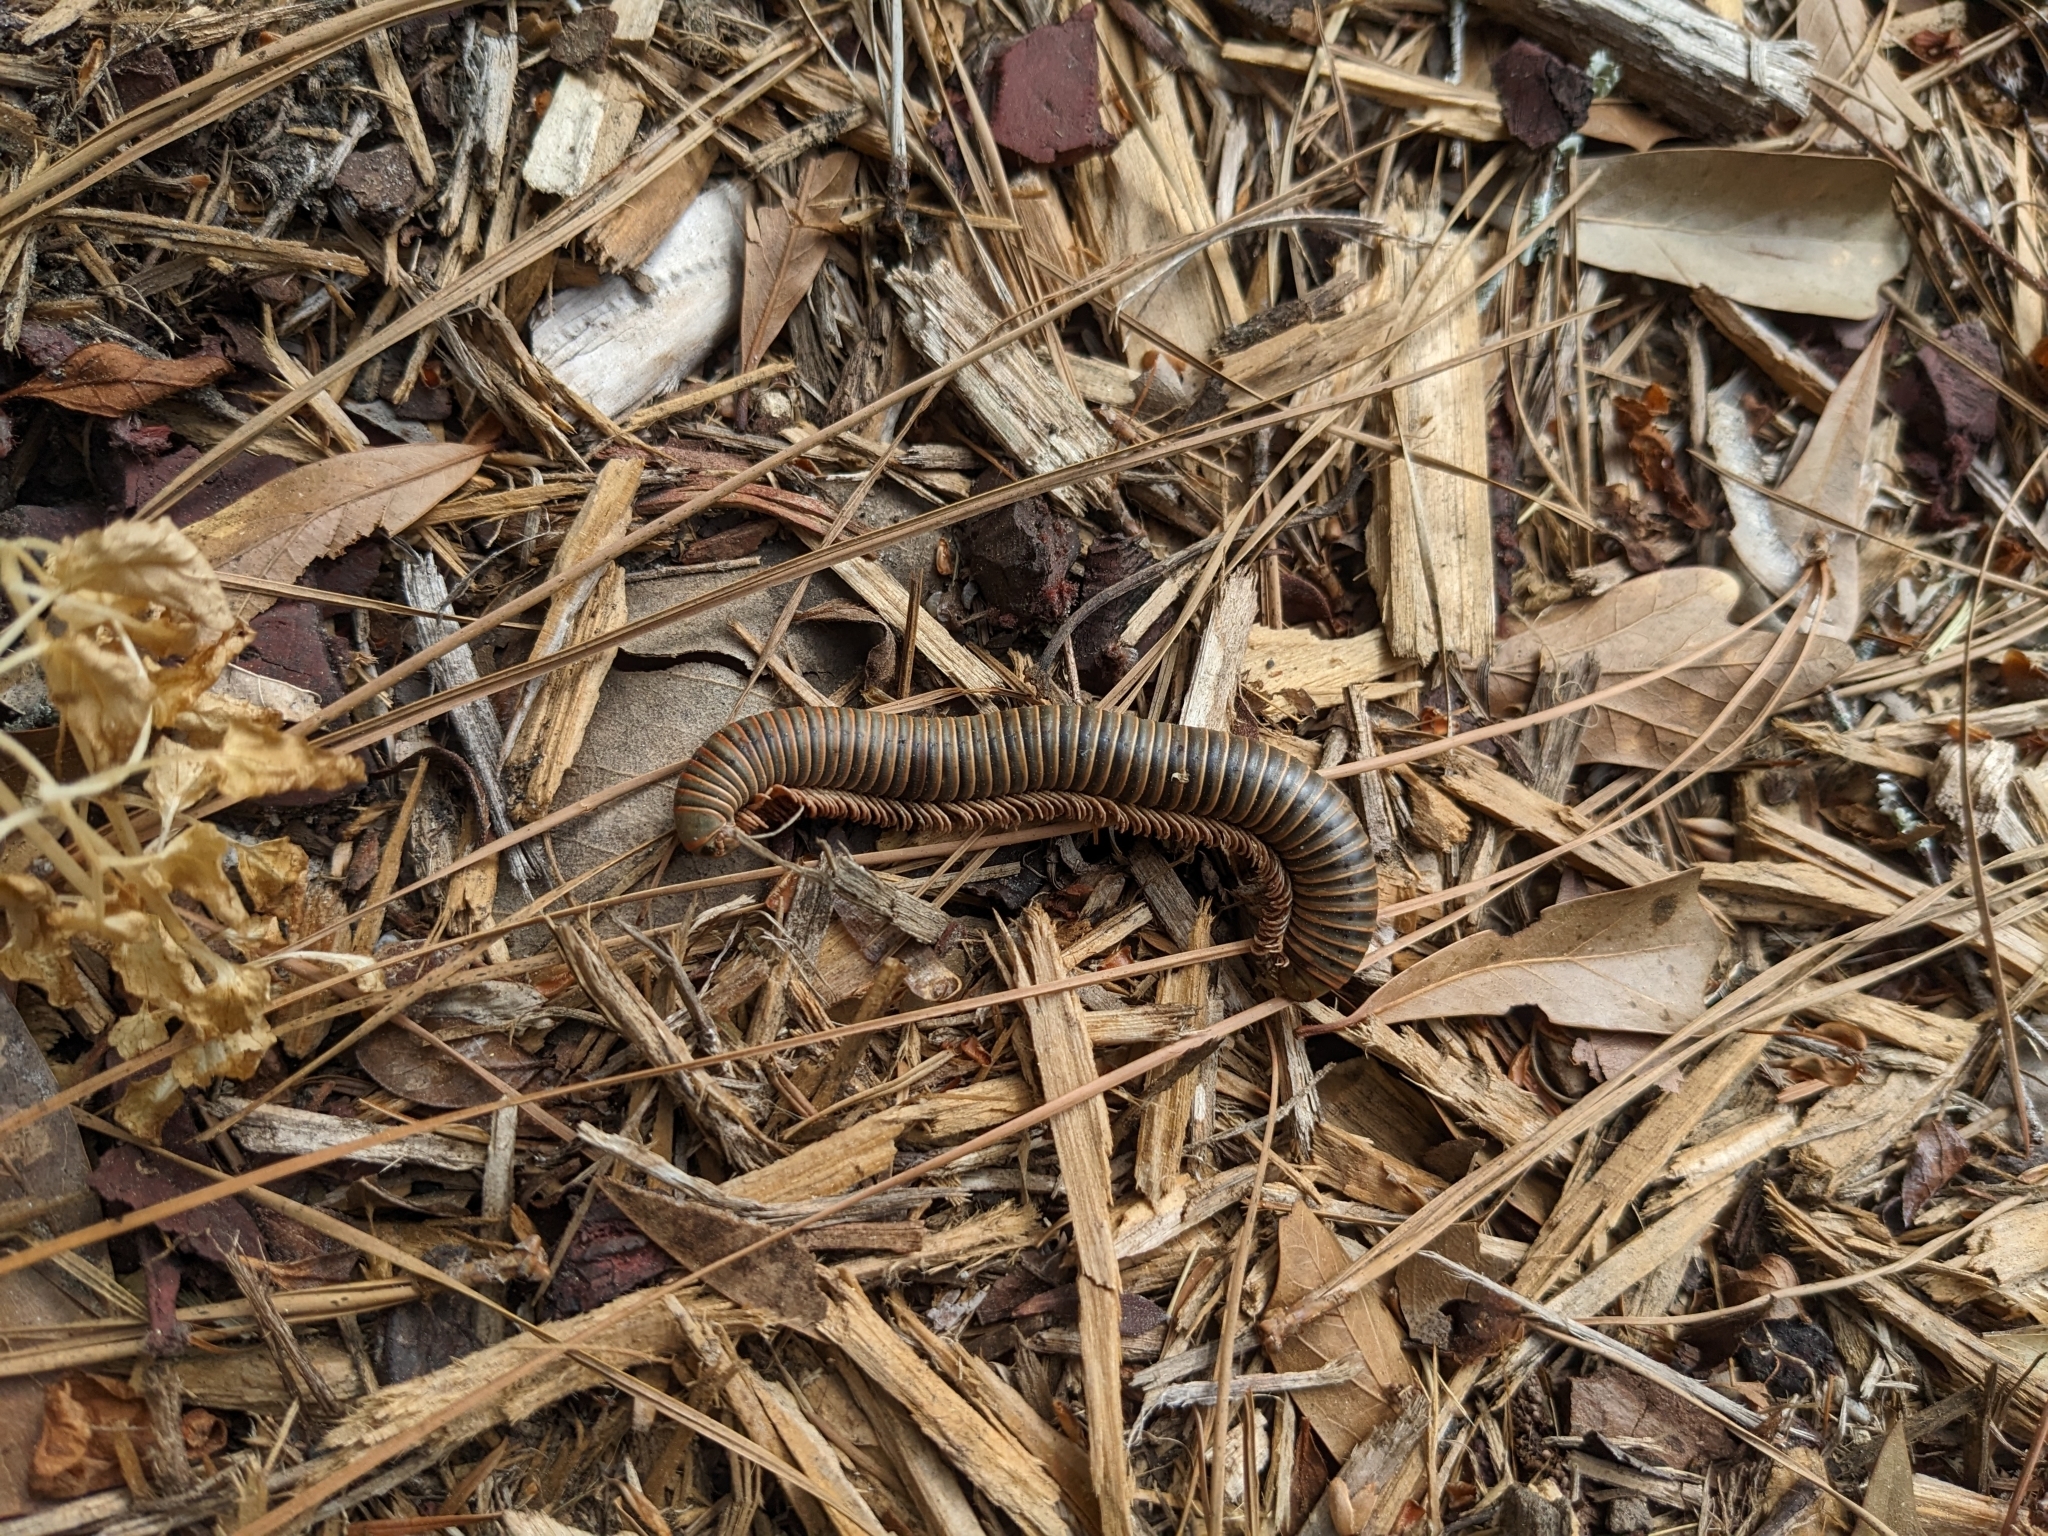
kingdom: Animalia
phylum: Arthropoda
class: Diplopoda
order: Spirobolida
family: Spirobolidae
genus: Narceus
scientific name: Narceus
